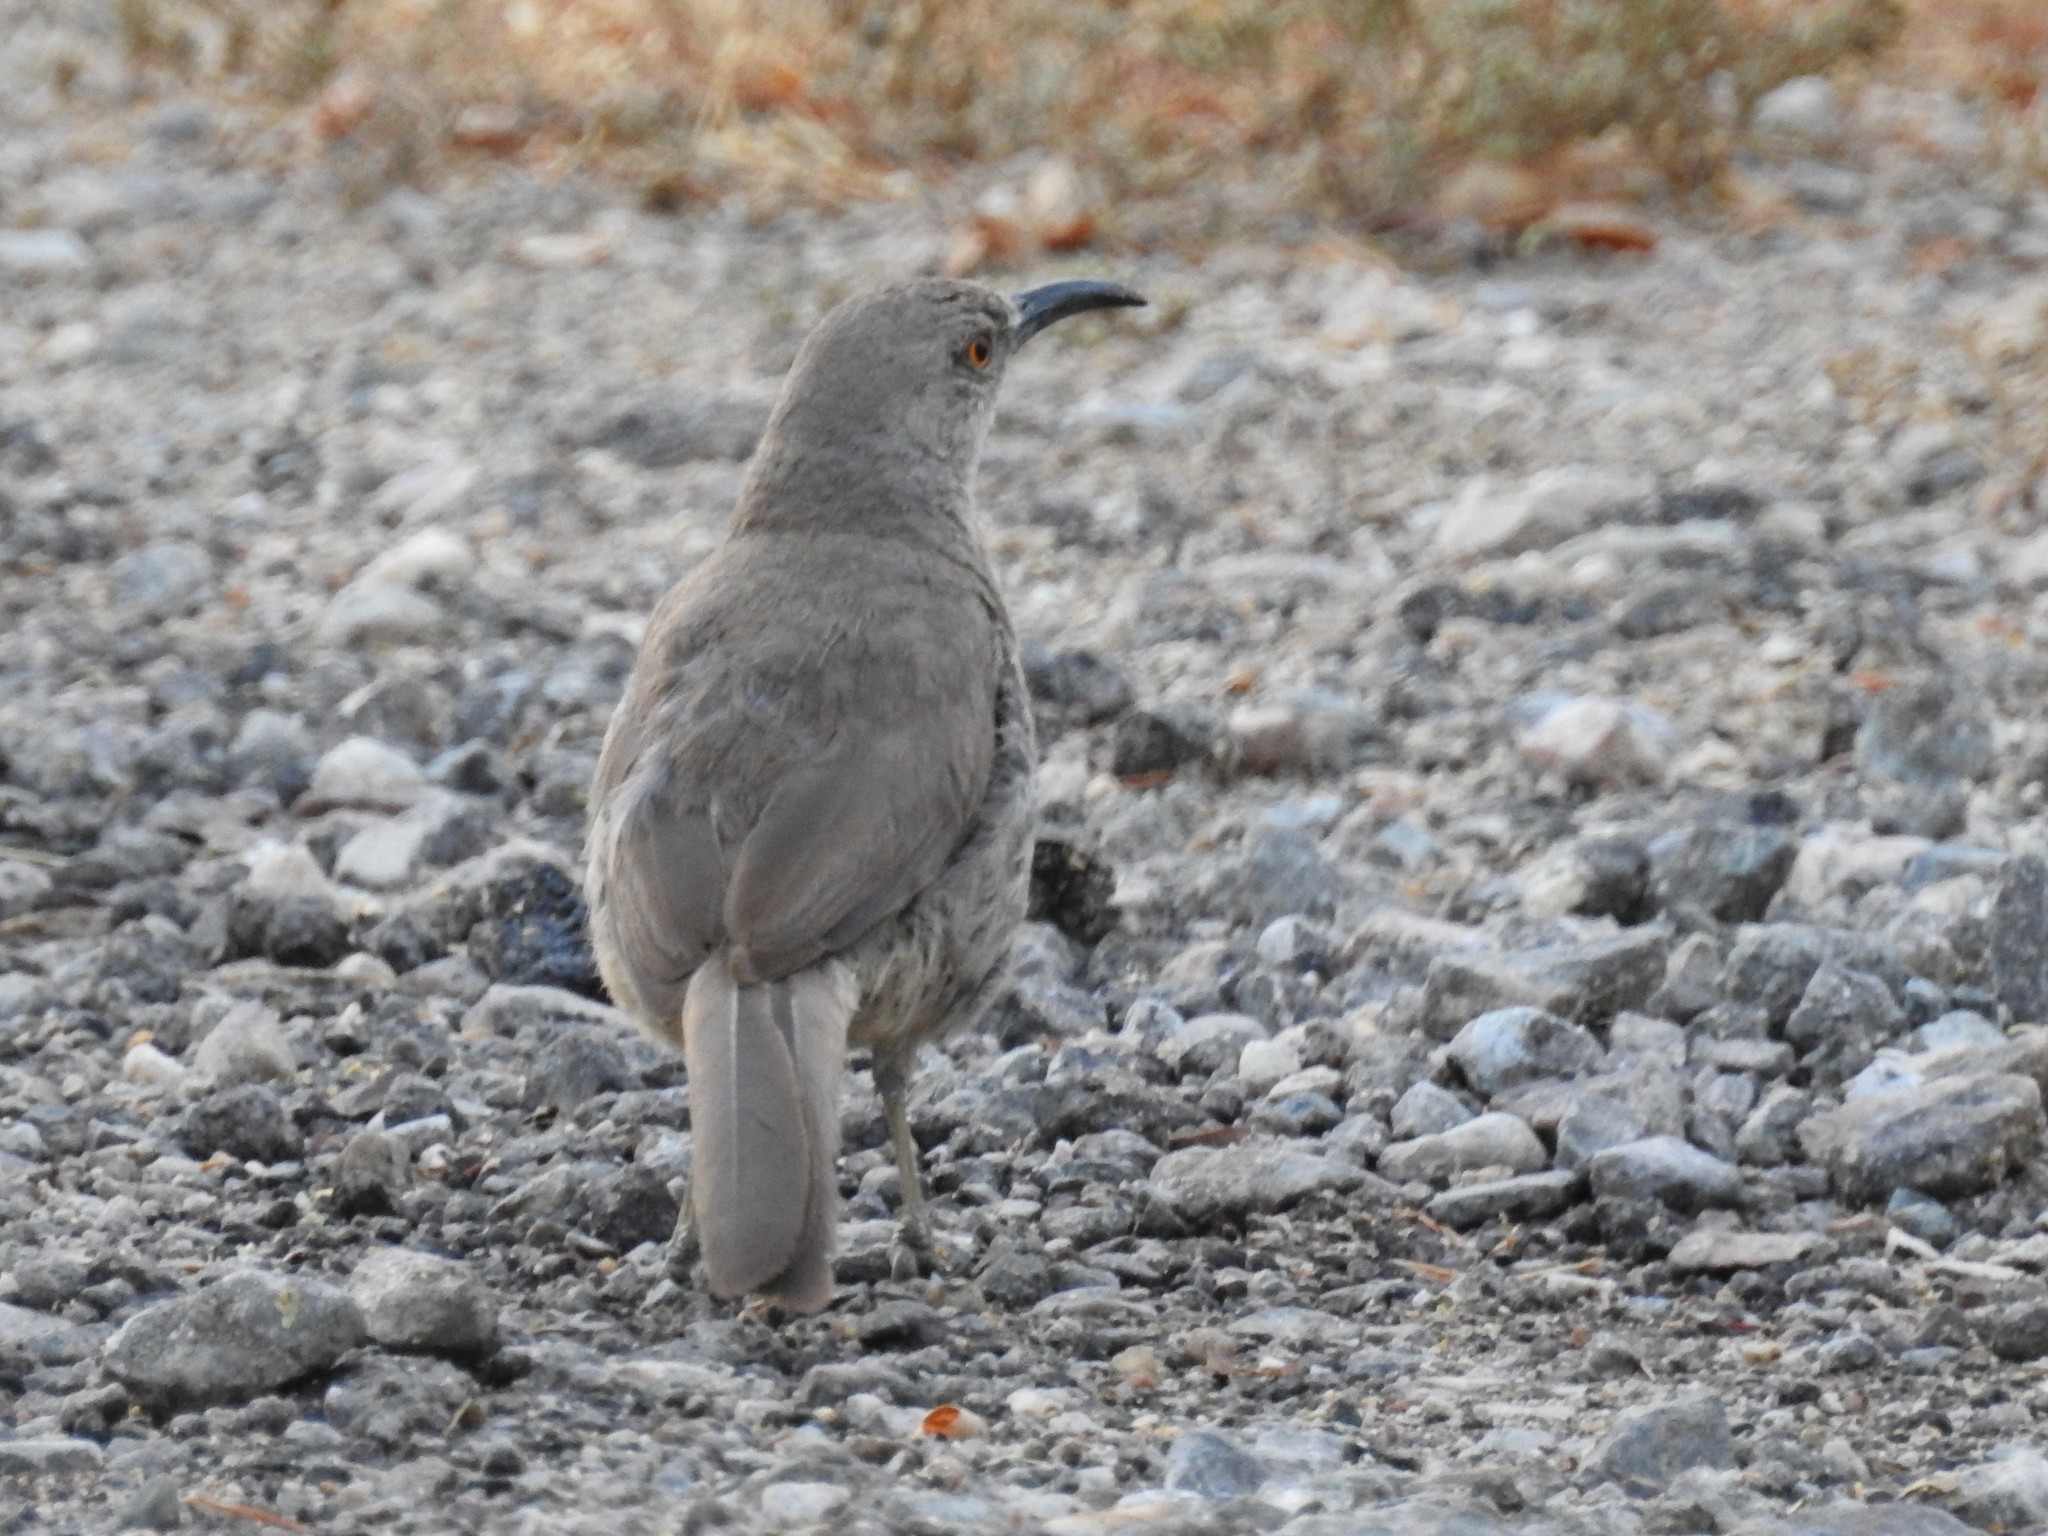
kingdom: Animalia
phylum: Chordata
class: Aves
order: Passeriformes
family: Mimidae
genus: Toxostoma
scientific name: Toxostoma curvirostre
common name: Curve-billed thrasher
